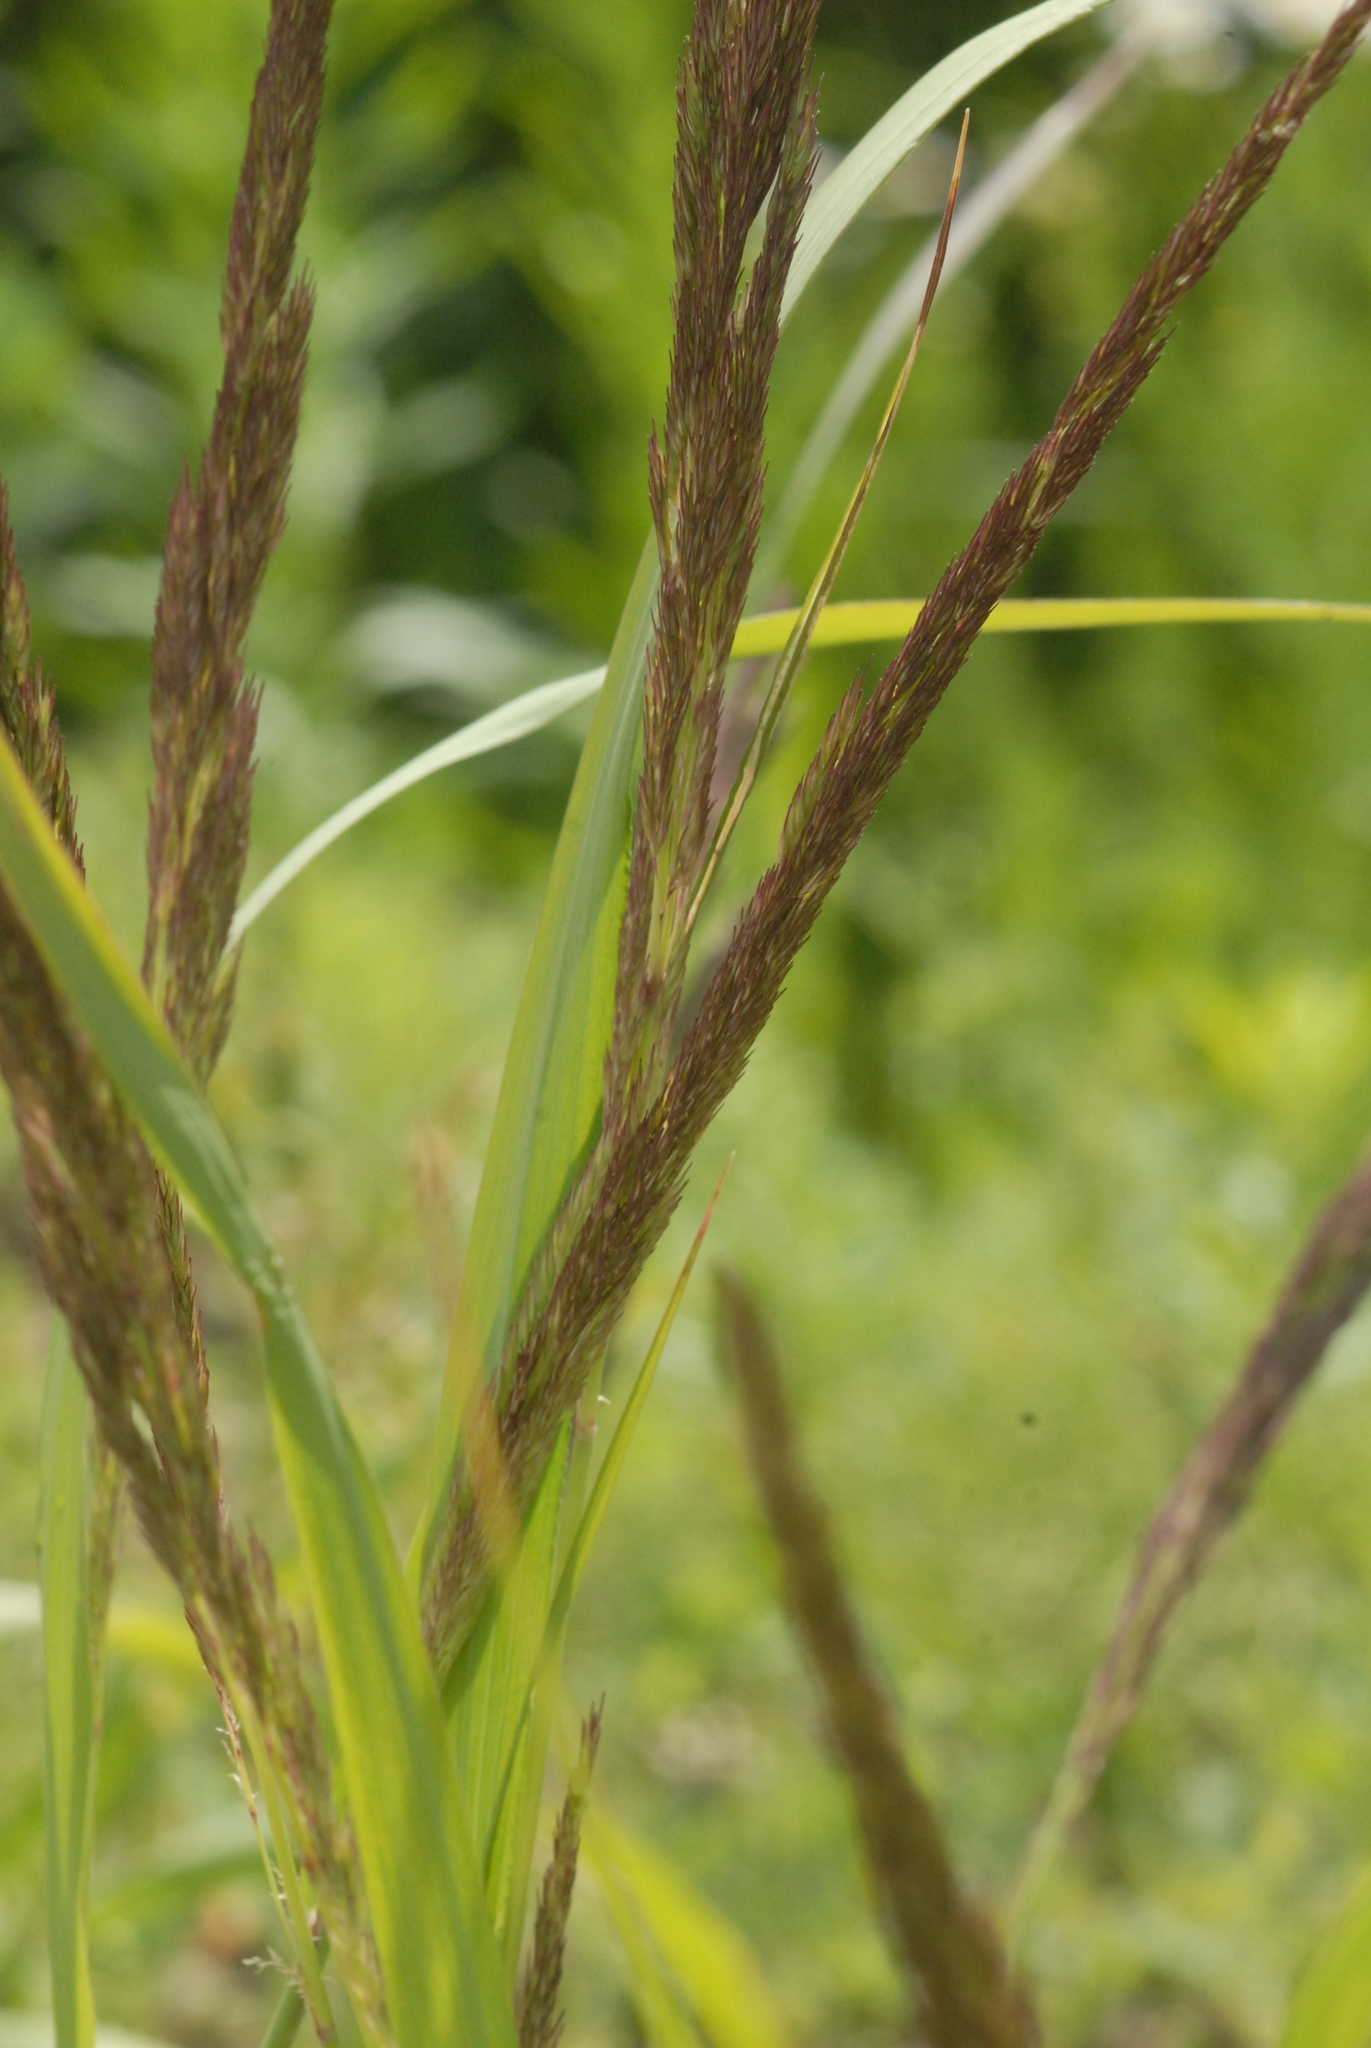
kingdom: Plantae
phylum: Tracheophyta
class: Liliopsida
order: Poales
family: Poaceae
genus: Calamagrostis
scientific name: Calamagrostis epigejos
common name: Wood small-reed
